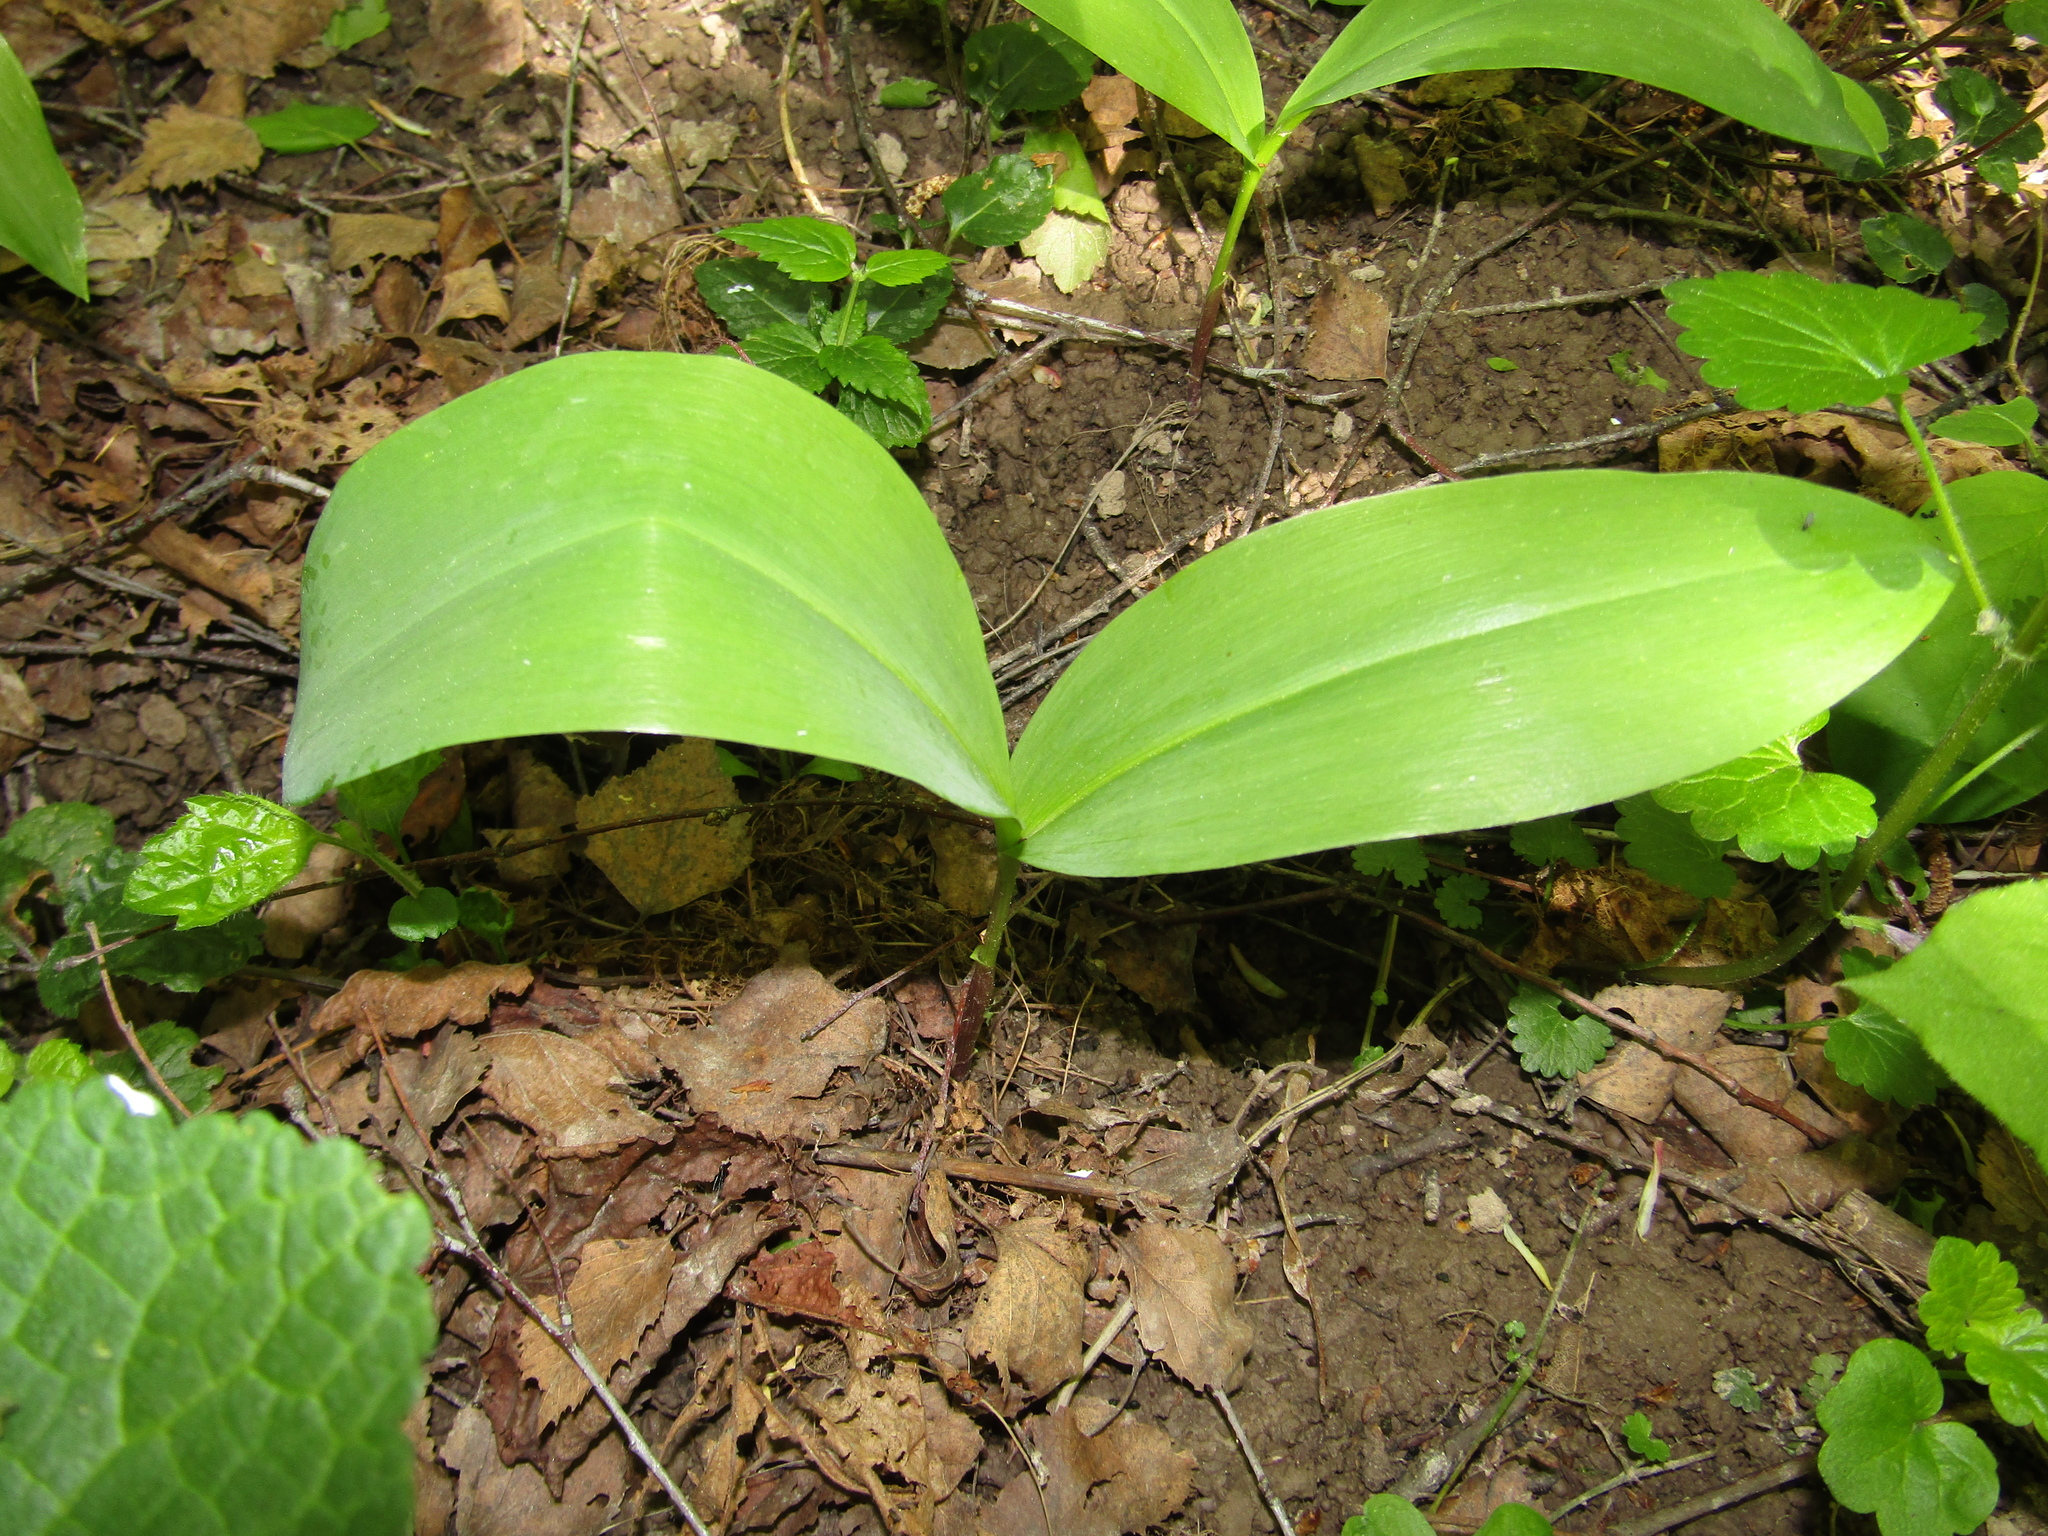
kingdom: Plantae
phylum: Tracheophyta
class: Liliopsida
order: Asparagales
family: Asparagaceae
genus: Convallaria
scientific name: Convallaria majalis
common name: Lily-of-the-valley
